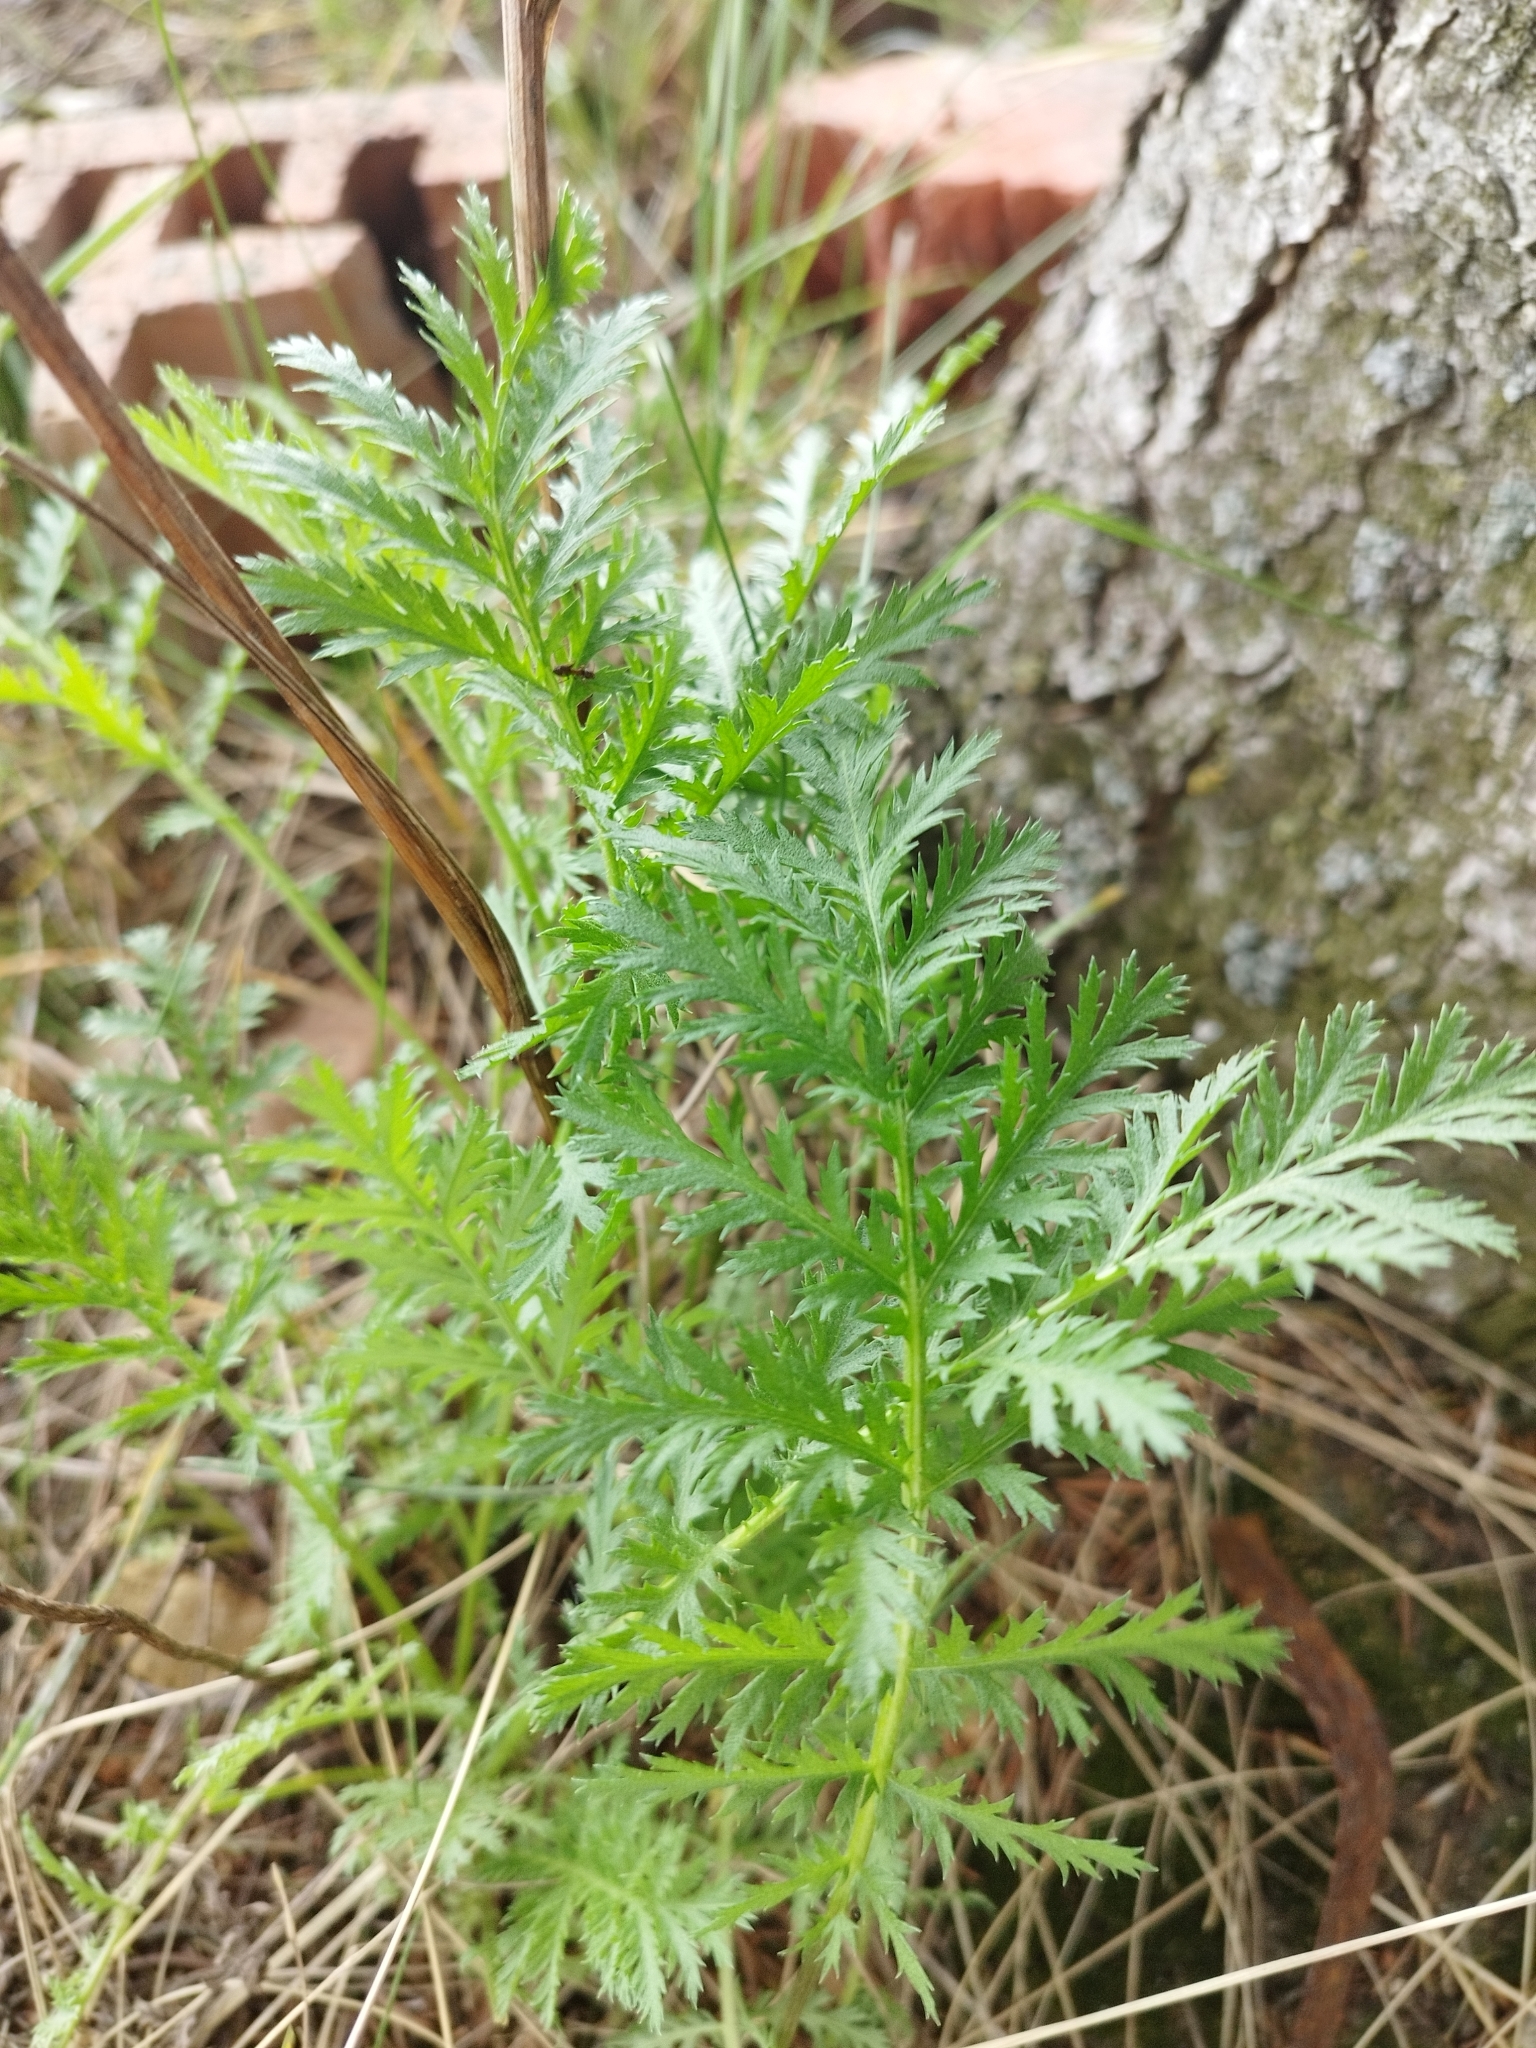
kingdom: Plantae
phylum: Tracheophyta
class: Magnoliopsida
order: Asterales
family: Asteraceae
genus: Tanacetum
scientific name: Tanacetum vulgare
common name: Common tansy
